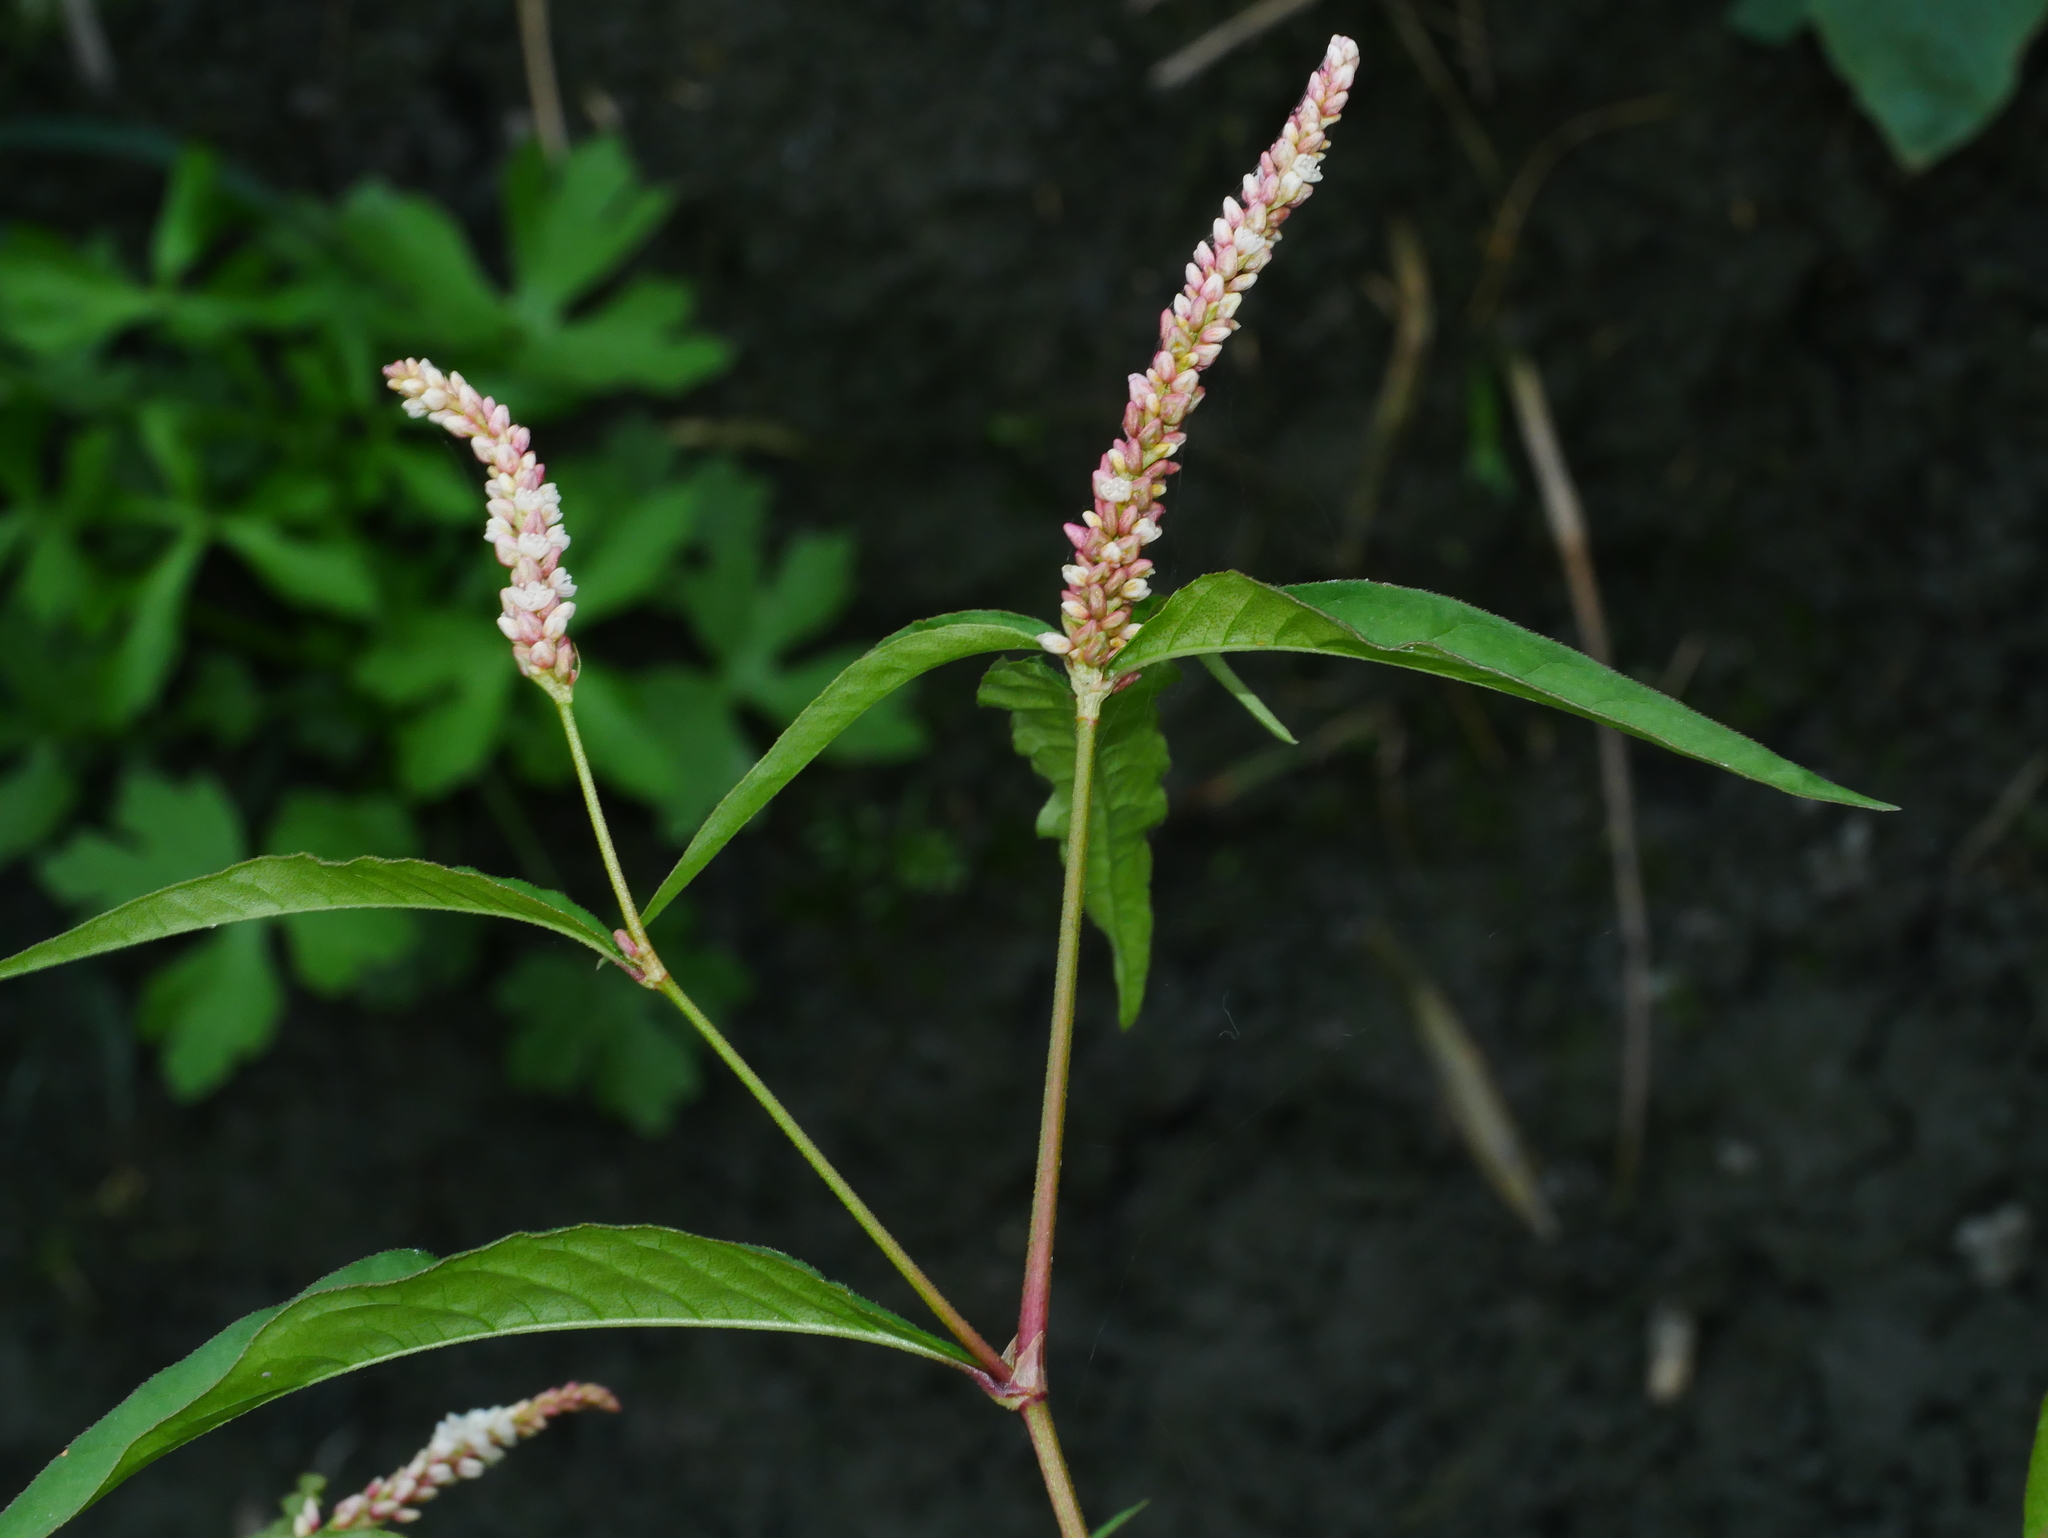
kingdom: Plantae
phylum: Tracheophyta
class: Magnoliopsida
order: Caryophyllales
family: Polygonaceae
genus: Persicaria
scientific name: Persicaria lapathifolia
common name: Curlytop knotweed
